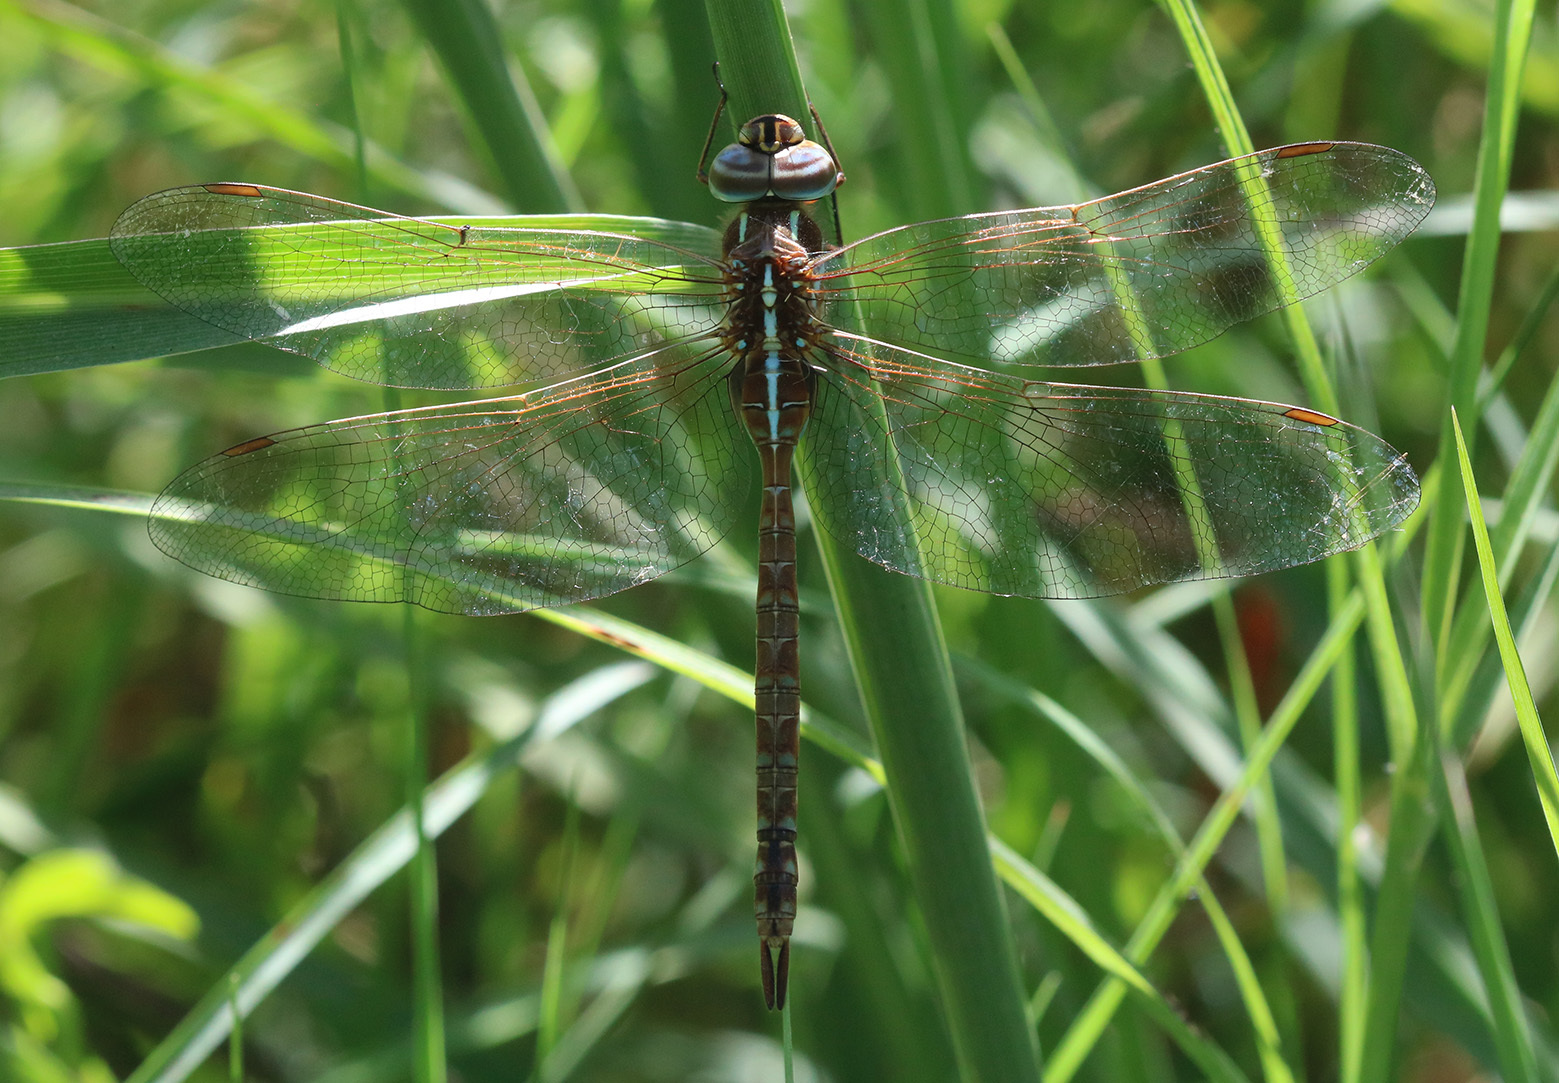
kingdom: Animalia
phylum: Arthropoda
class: Insecta
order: Odonata
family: Aeshnidae
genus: Rhionaeschna
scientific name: Rhionaeschna confusa
